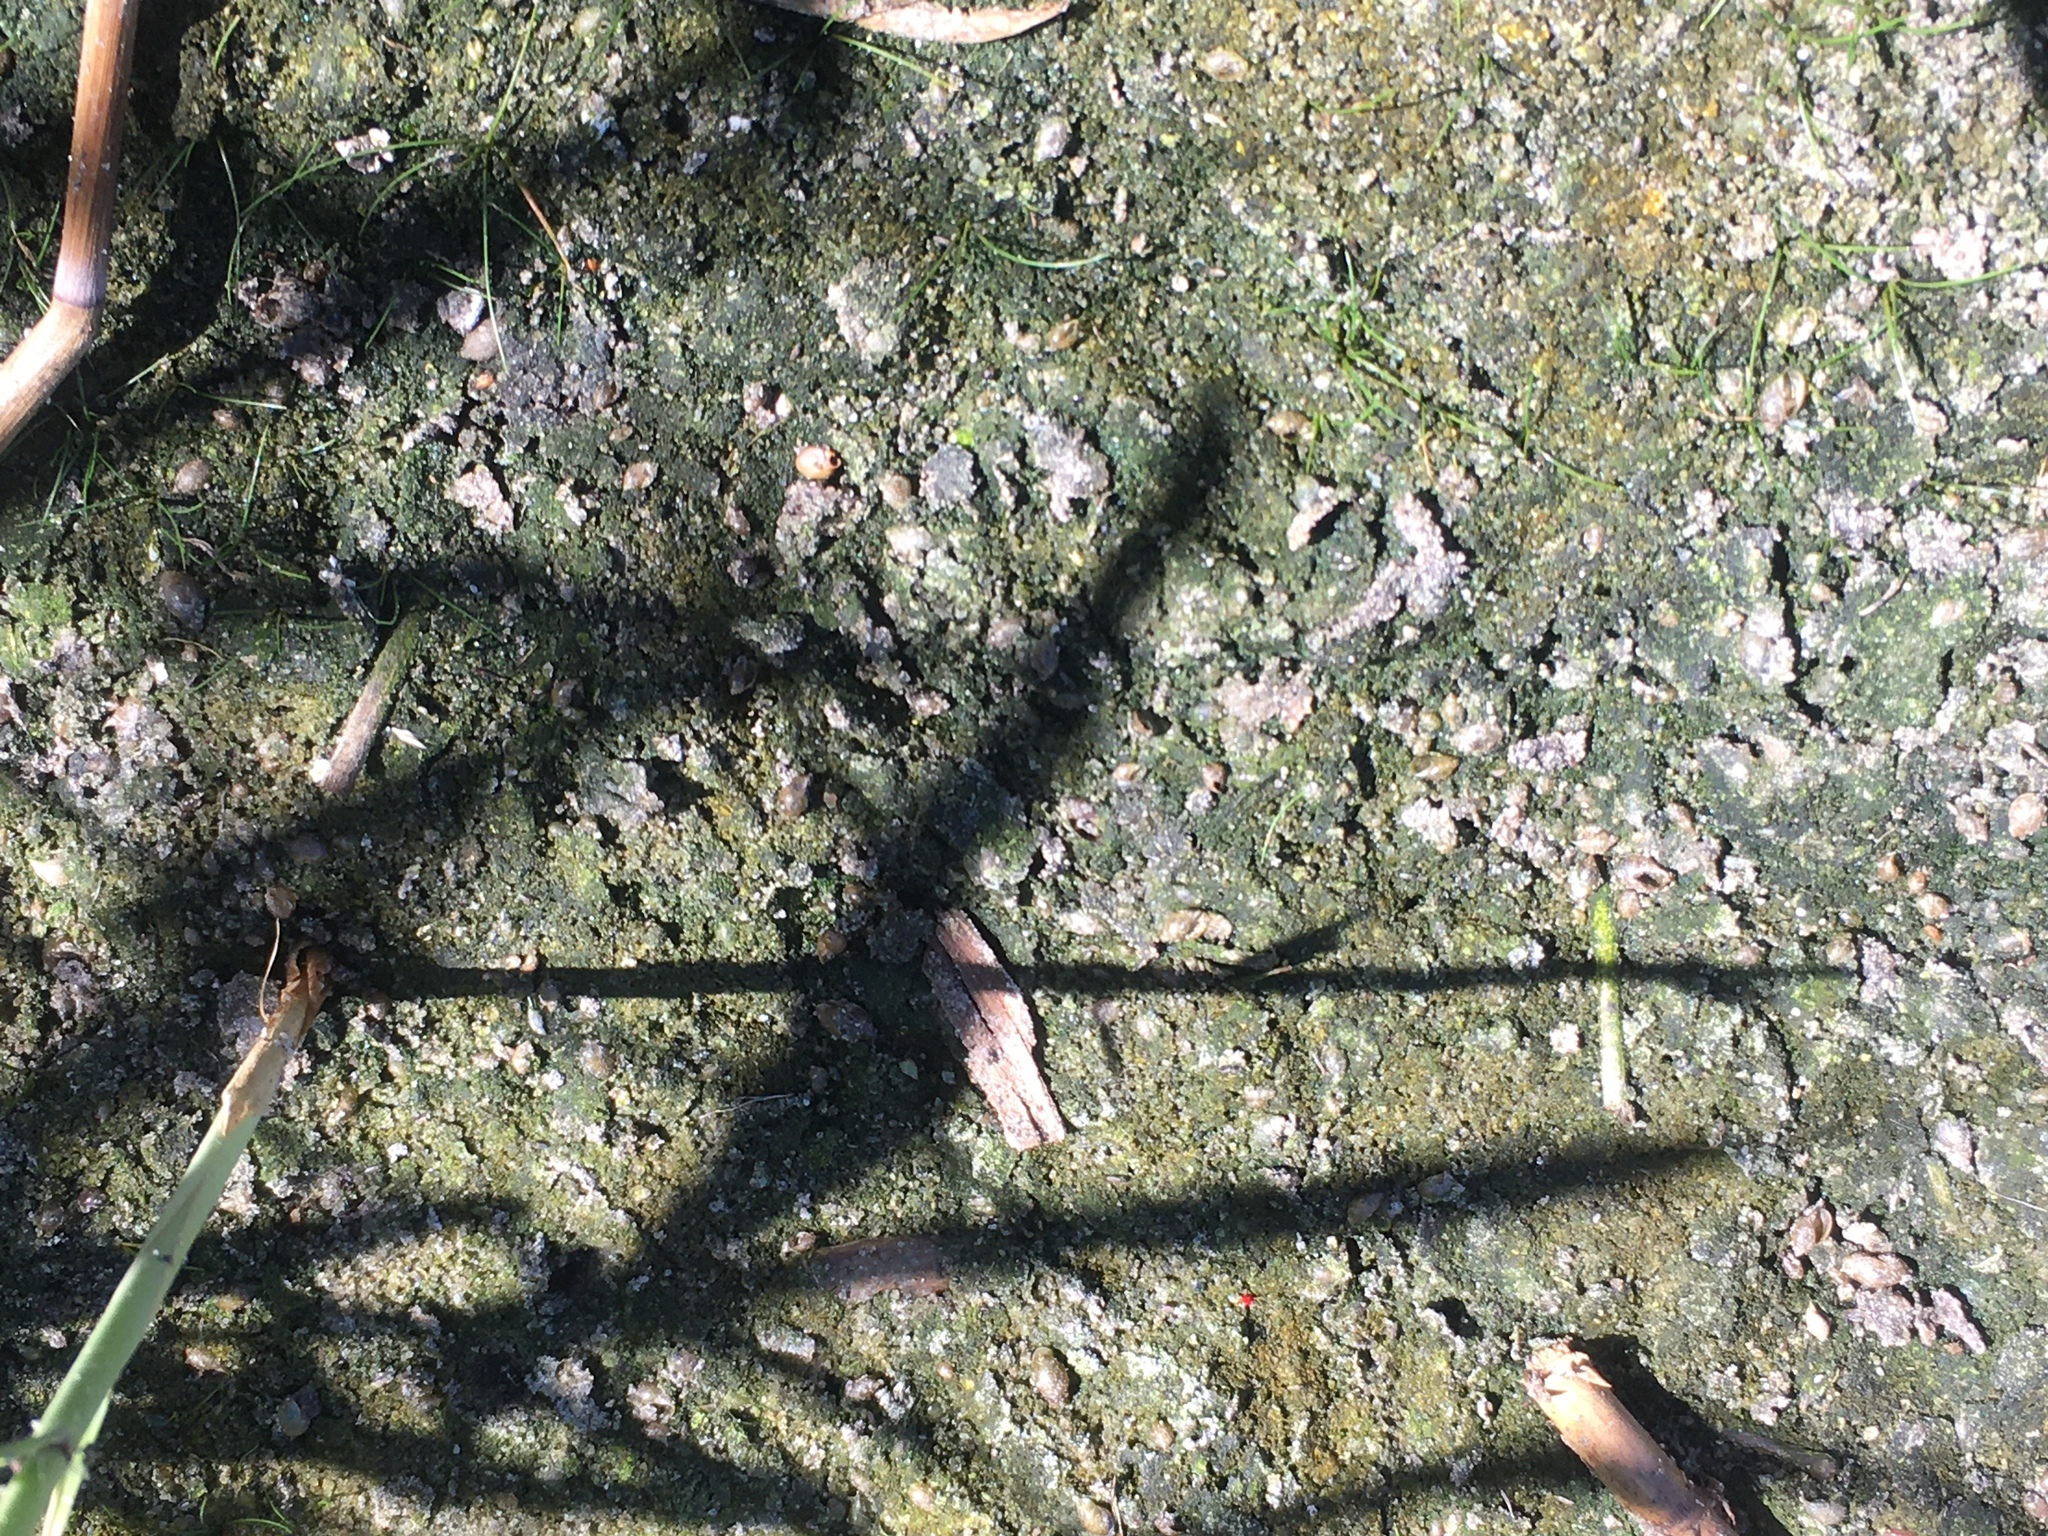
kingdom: Animalia
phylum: Mollusca
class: Gastropoda
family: Physidae
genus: Physella
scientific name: Physella acuta
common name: European physa
